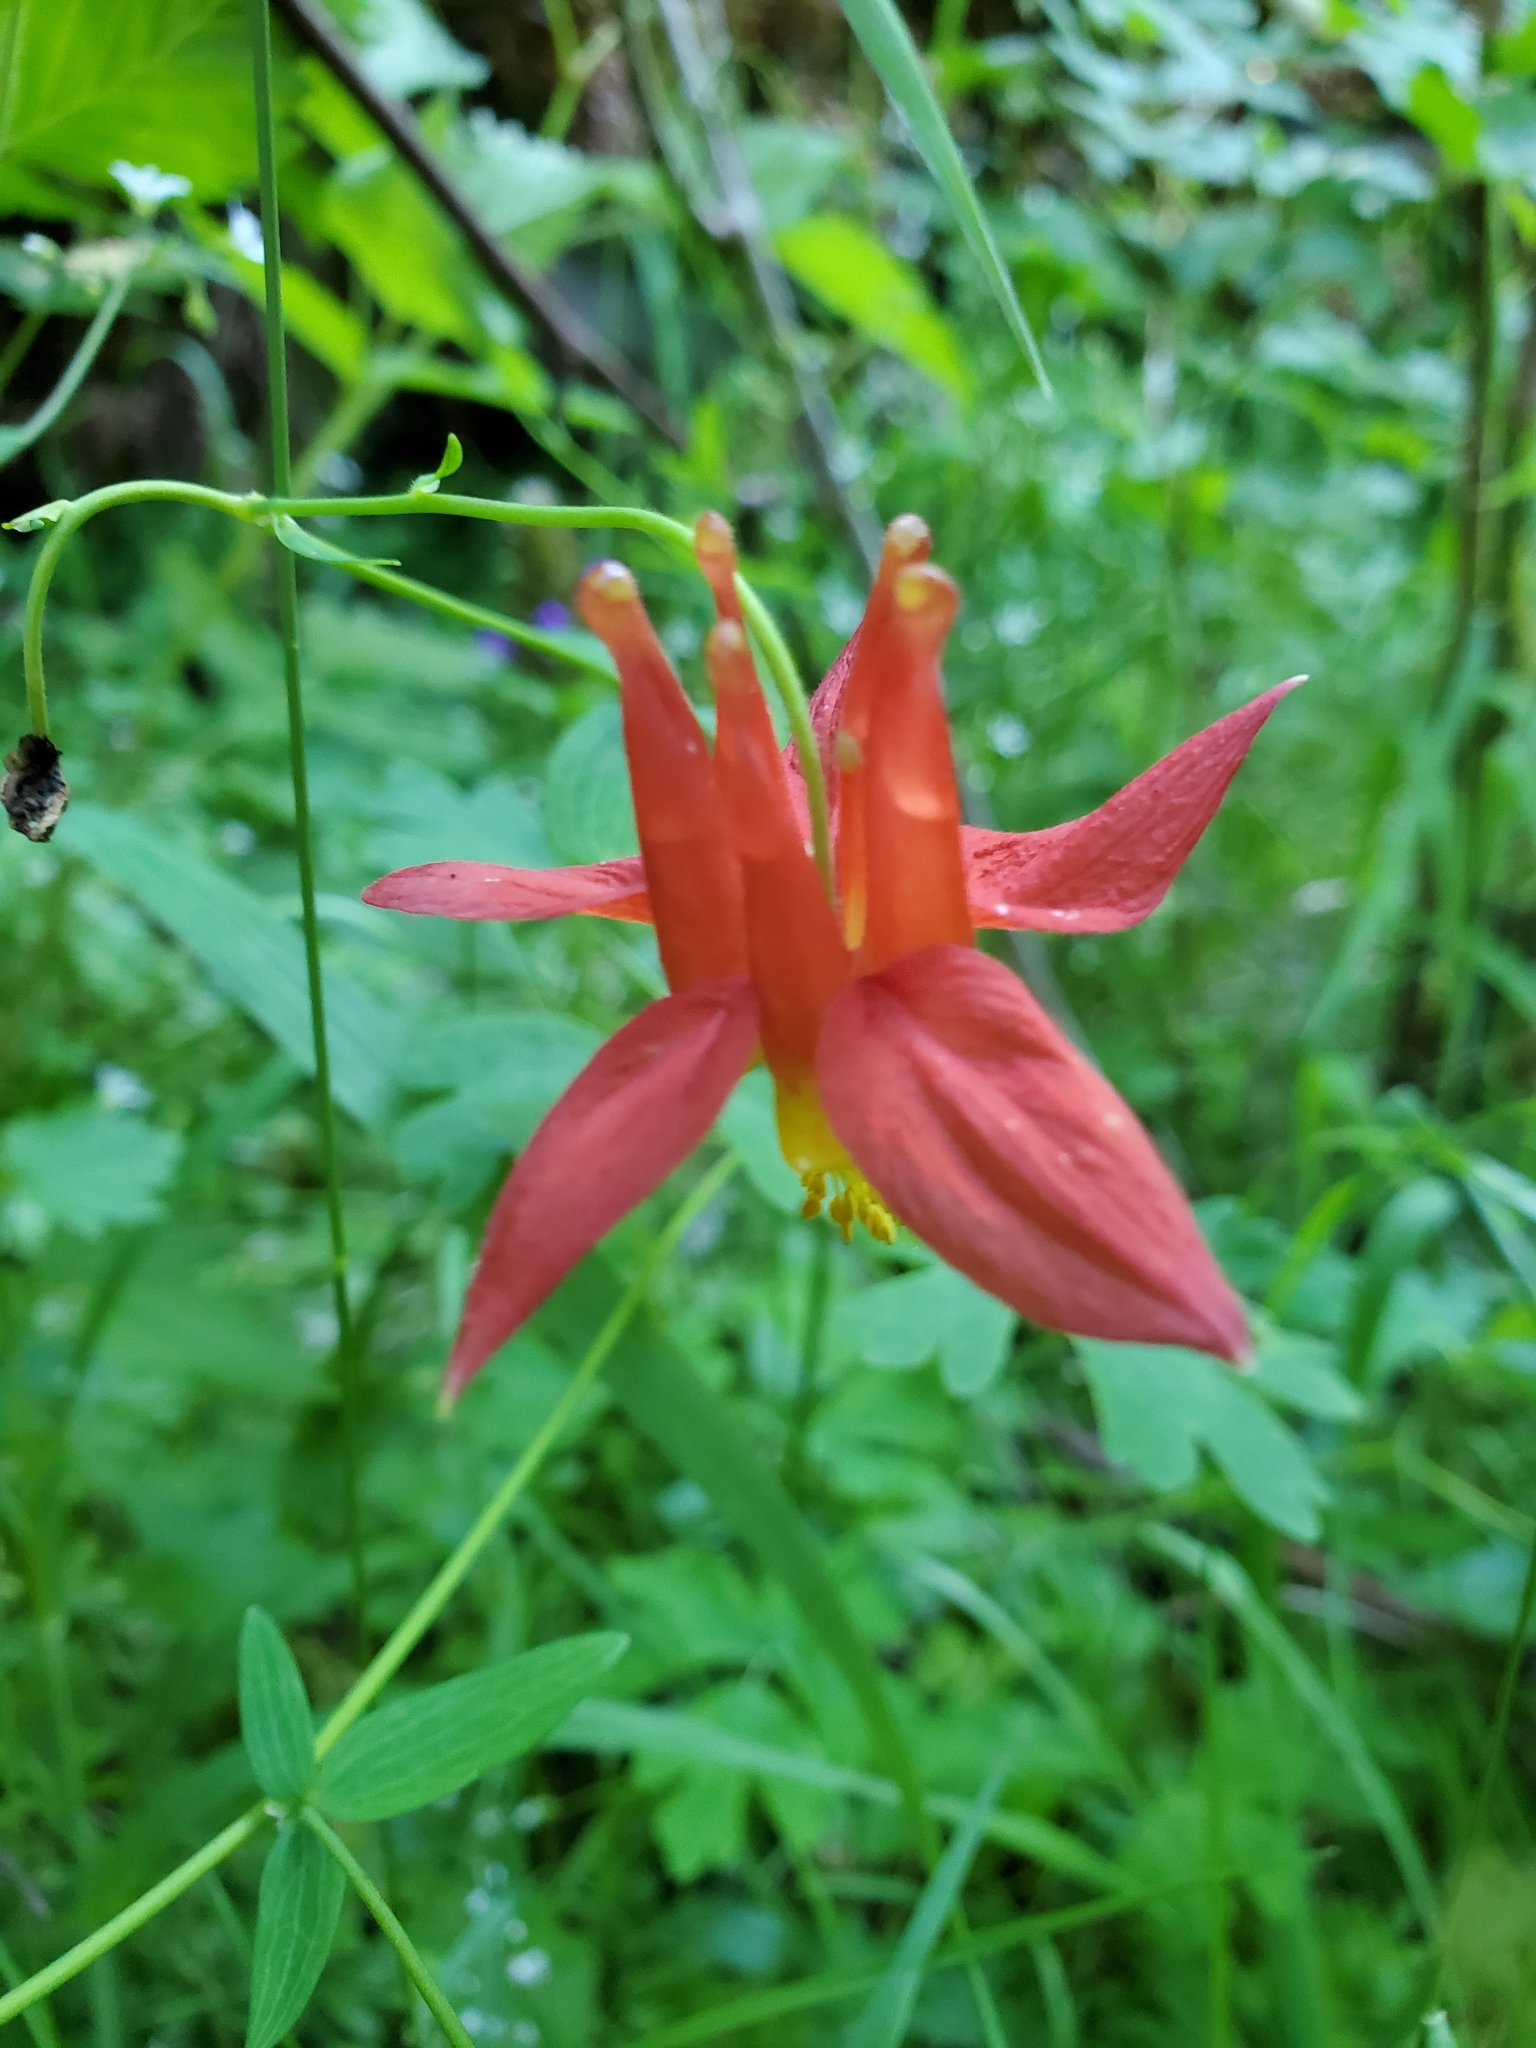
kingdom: Plantae
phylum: Tracheophyta
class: Magnoliopsida
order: Ranunculales
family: Ranunculaceae
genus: Aquilegia
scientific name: Aquilegia formosa
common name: Sitka columbine
